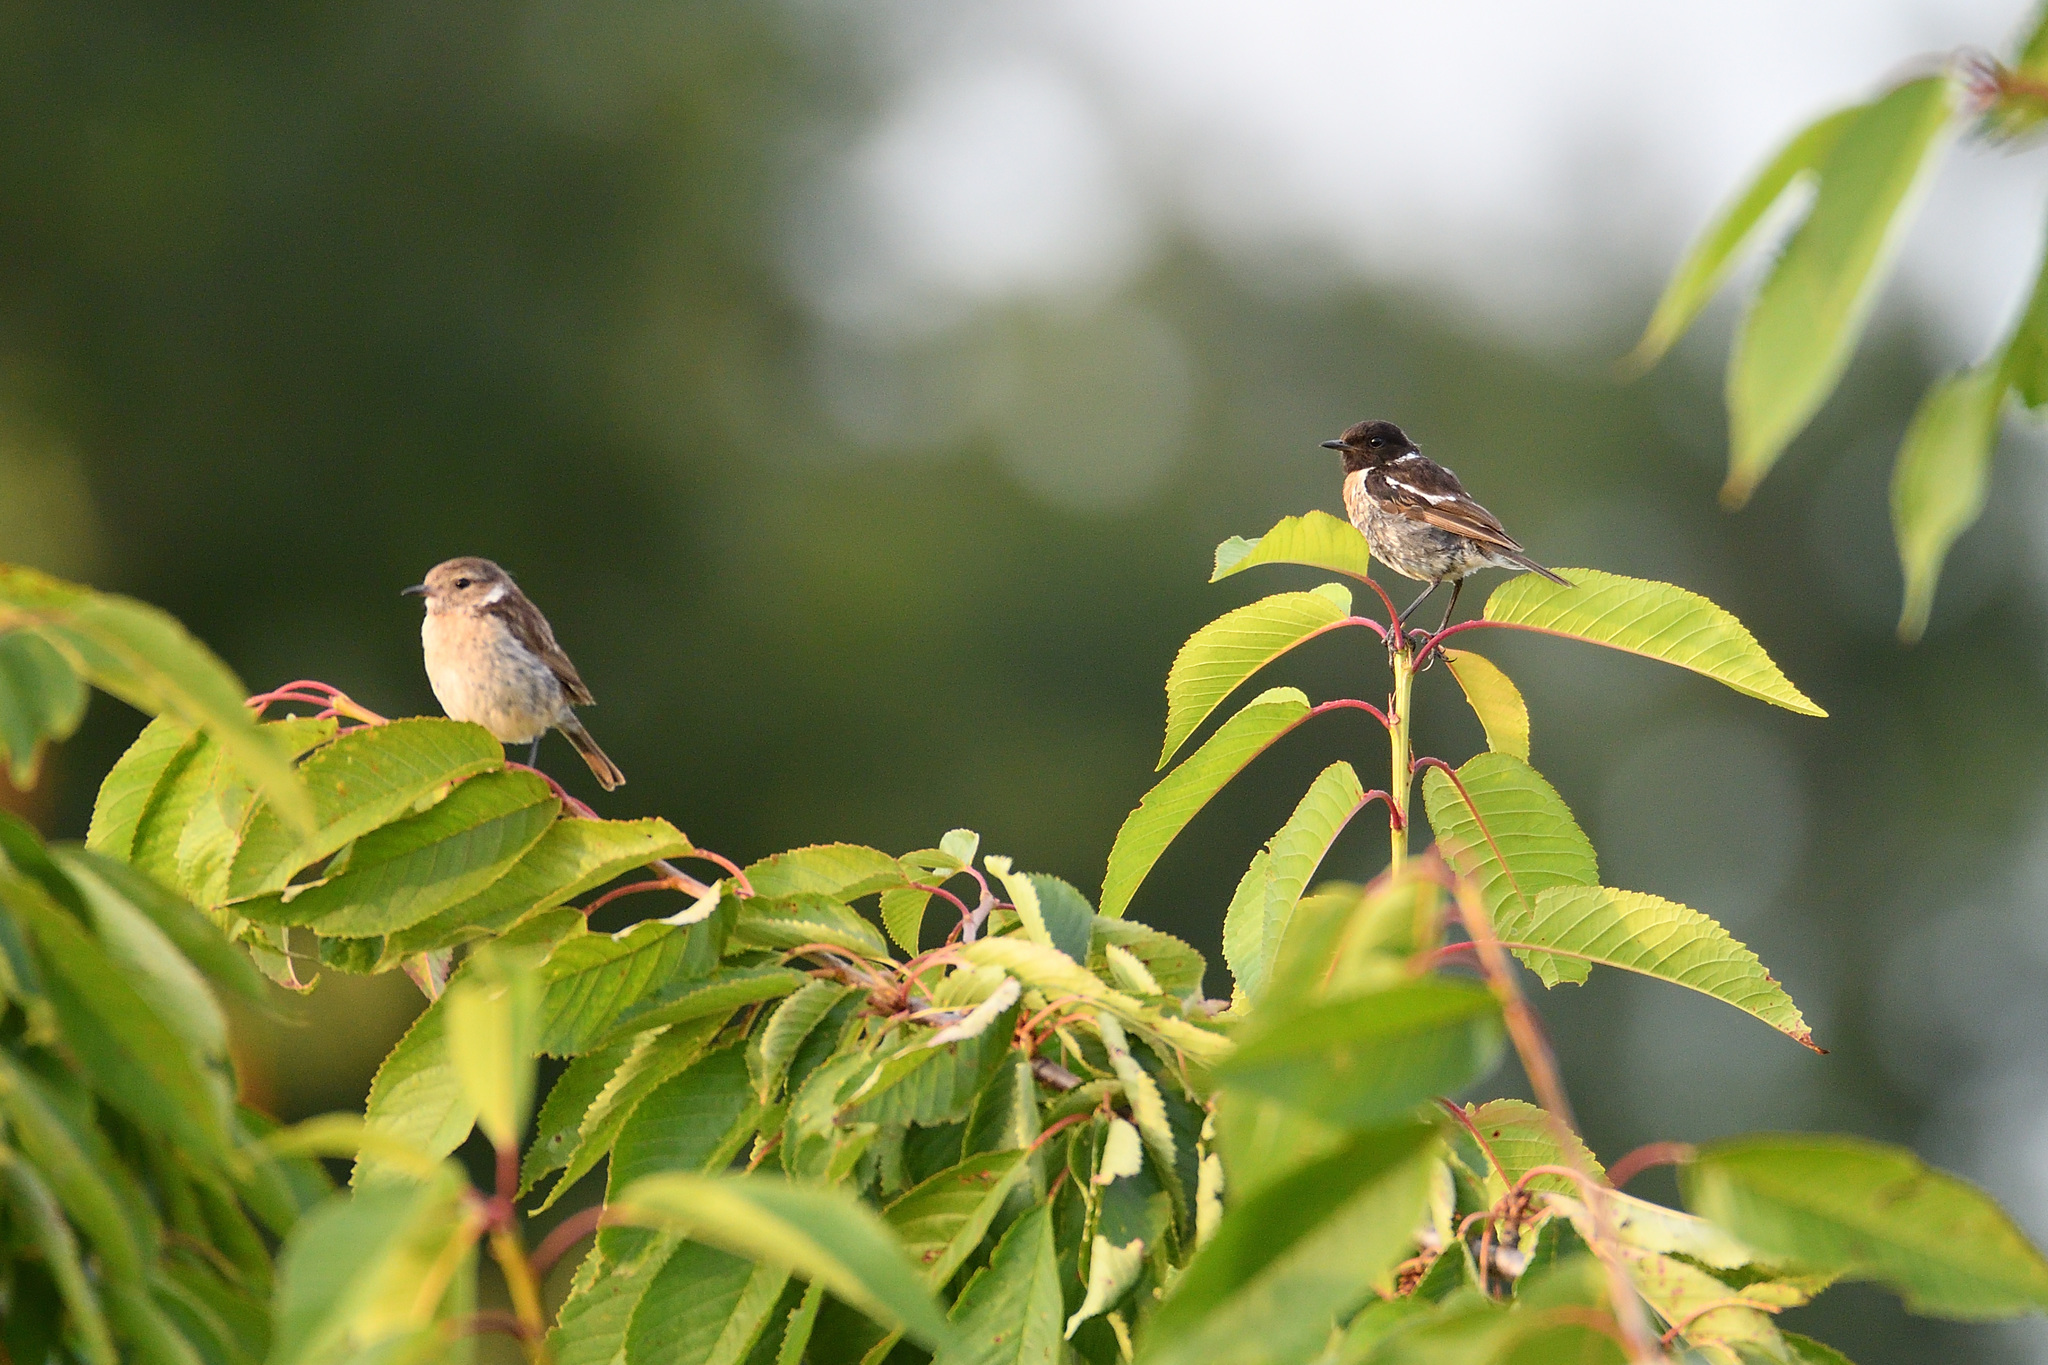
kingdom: Animalia
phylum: Chordata
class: Aves
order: Passeriformes
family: Muscicapidae
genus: Saxicola
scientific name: Saxicola rubicola
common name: European stonechat
